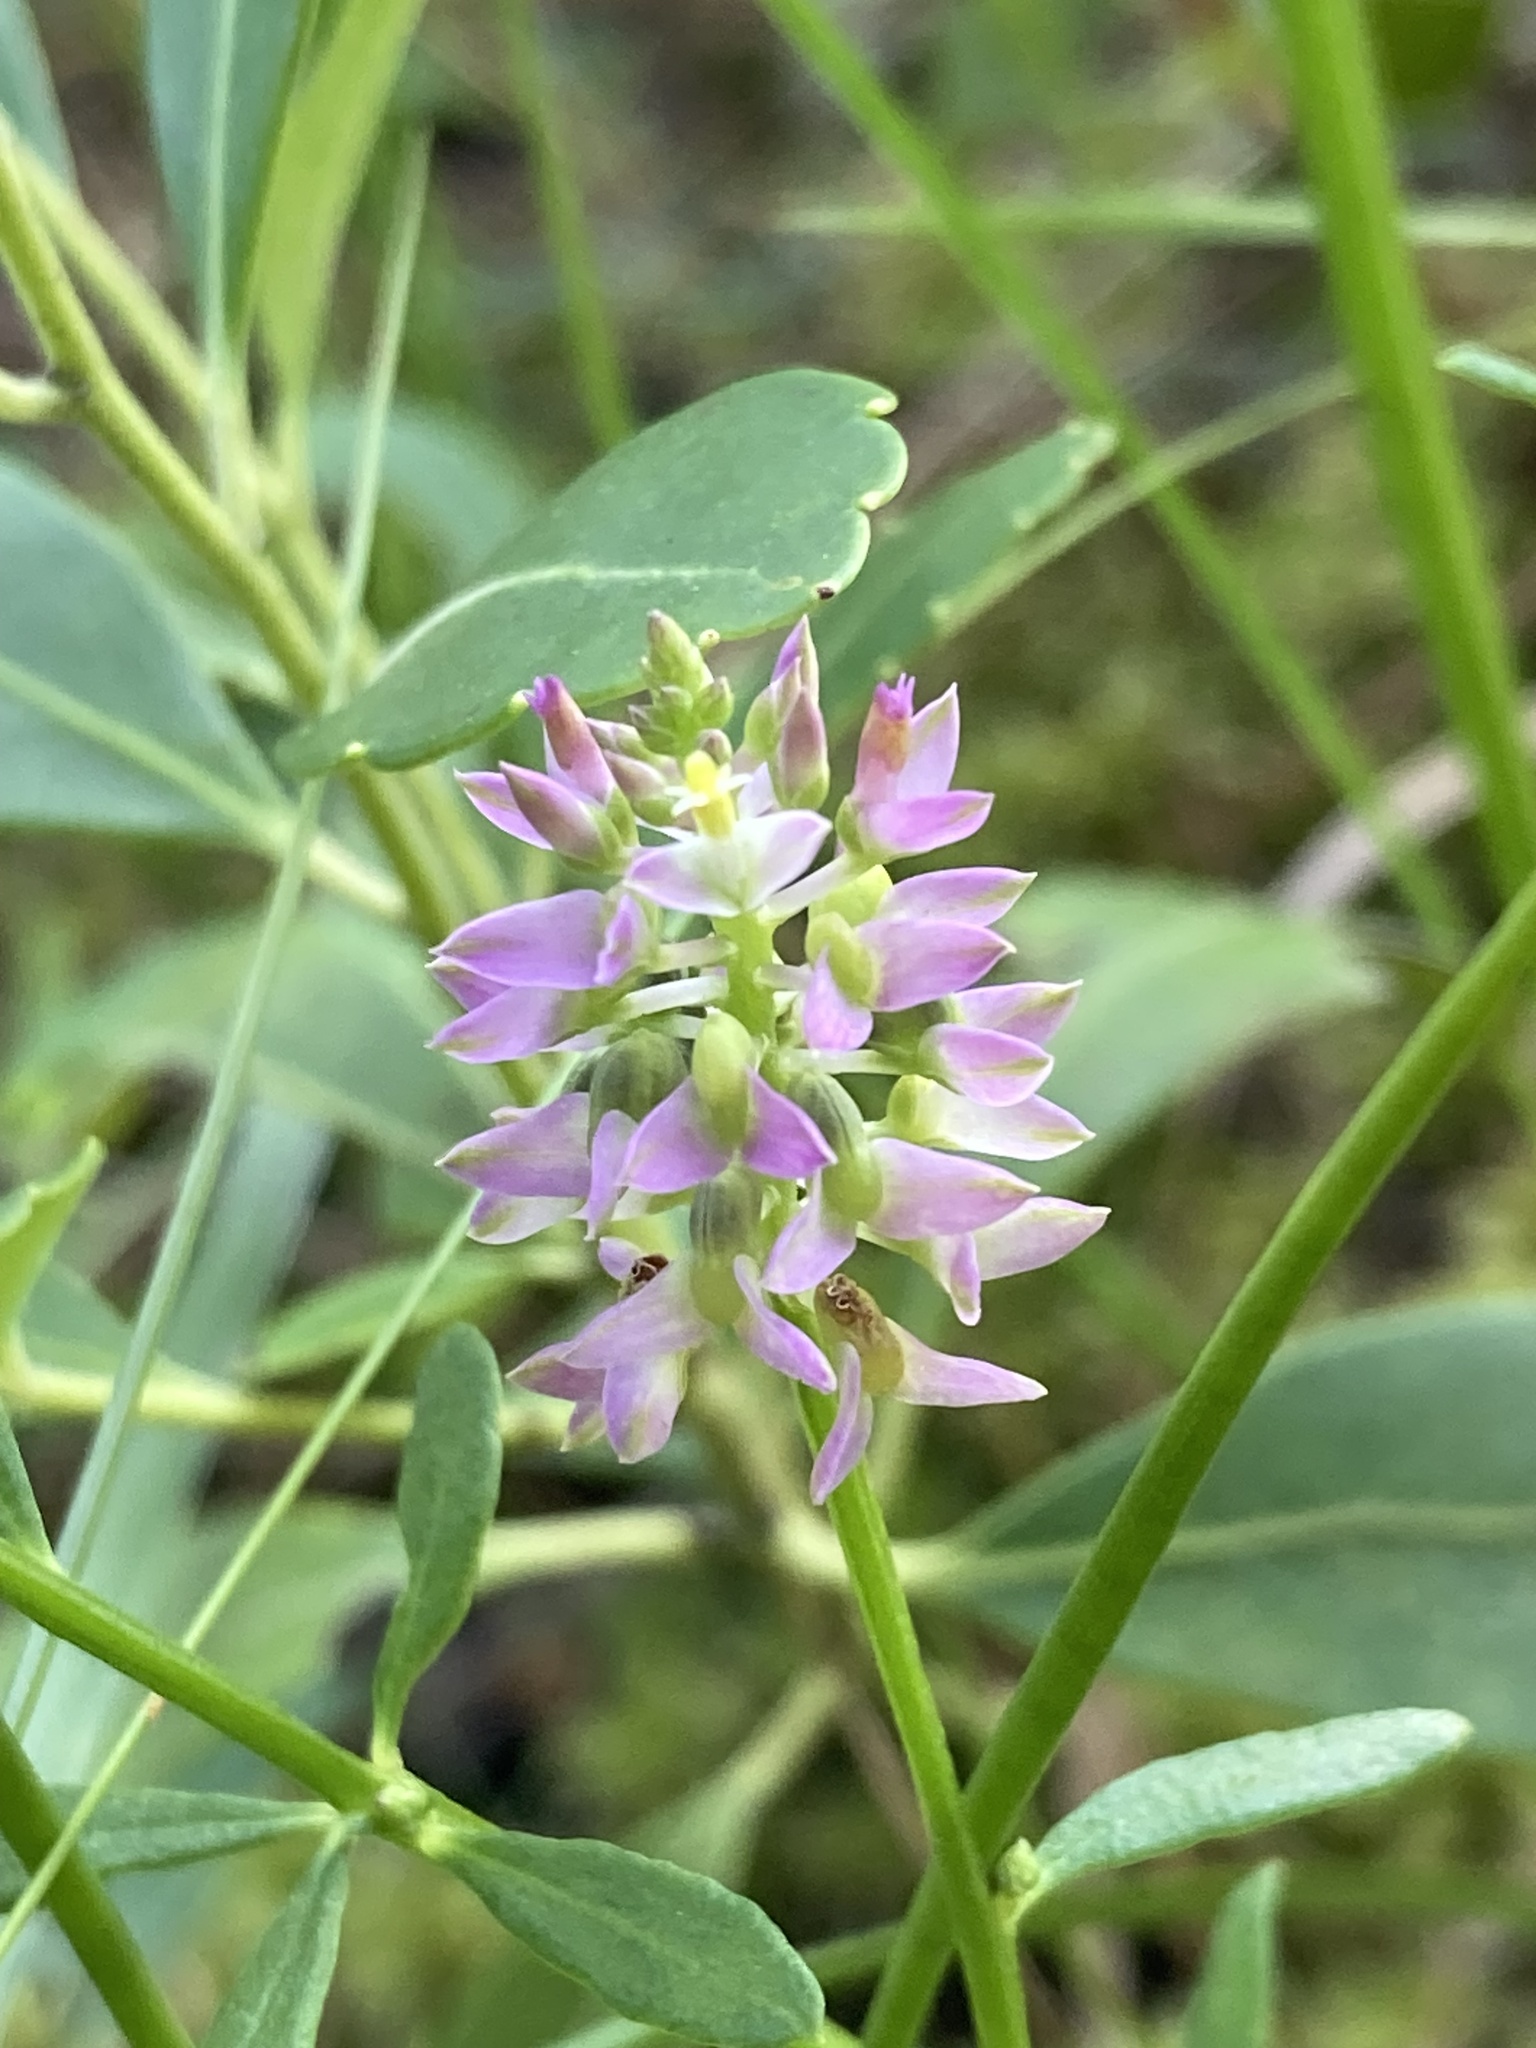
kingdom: Plantae
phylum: Tracheophyta
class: Magnoliopsida
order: Fabales
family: Polygalaceae
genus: Polygala
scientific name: Polygala brevifolia
